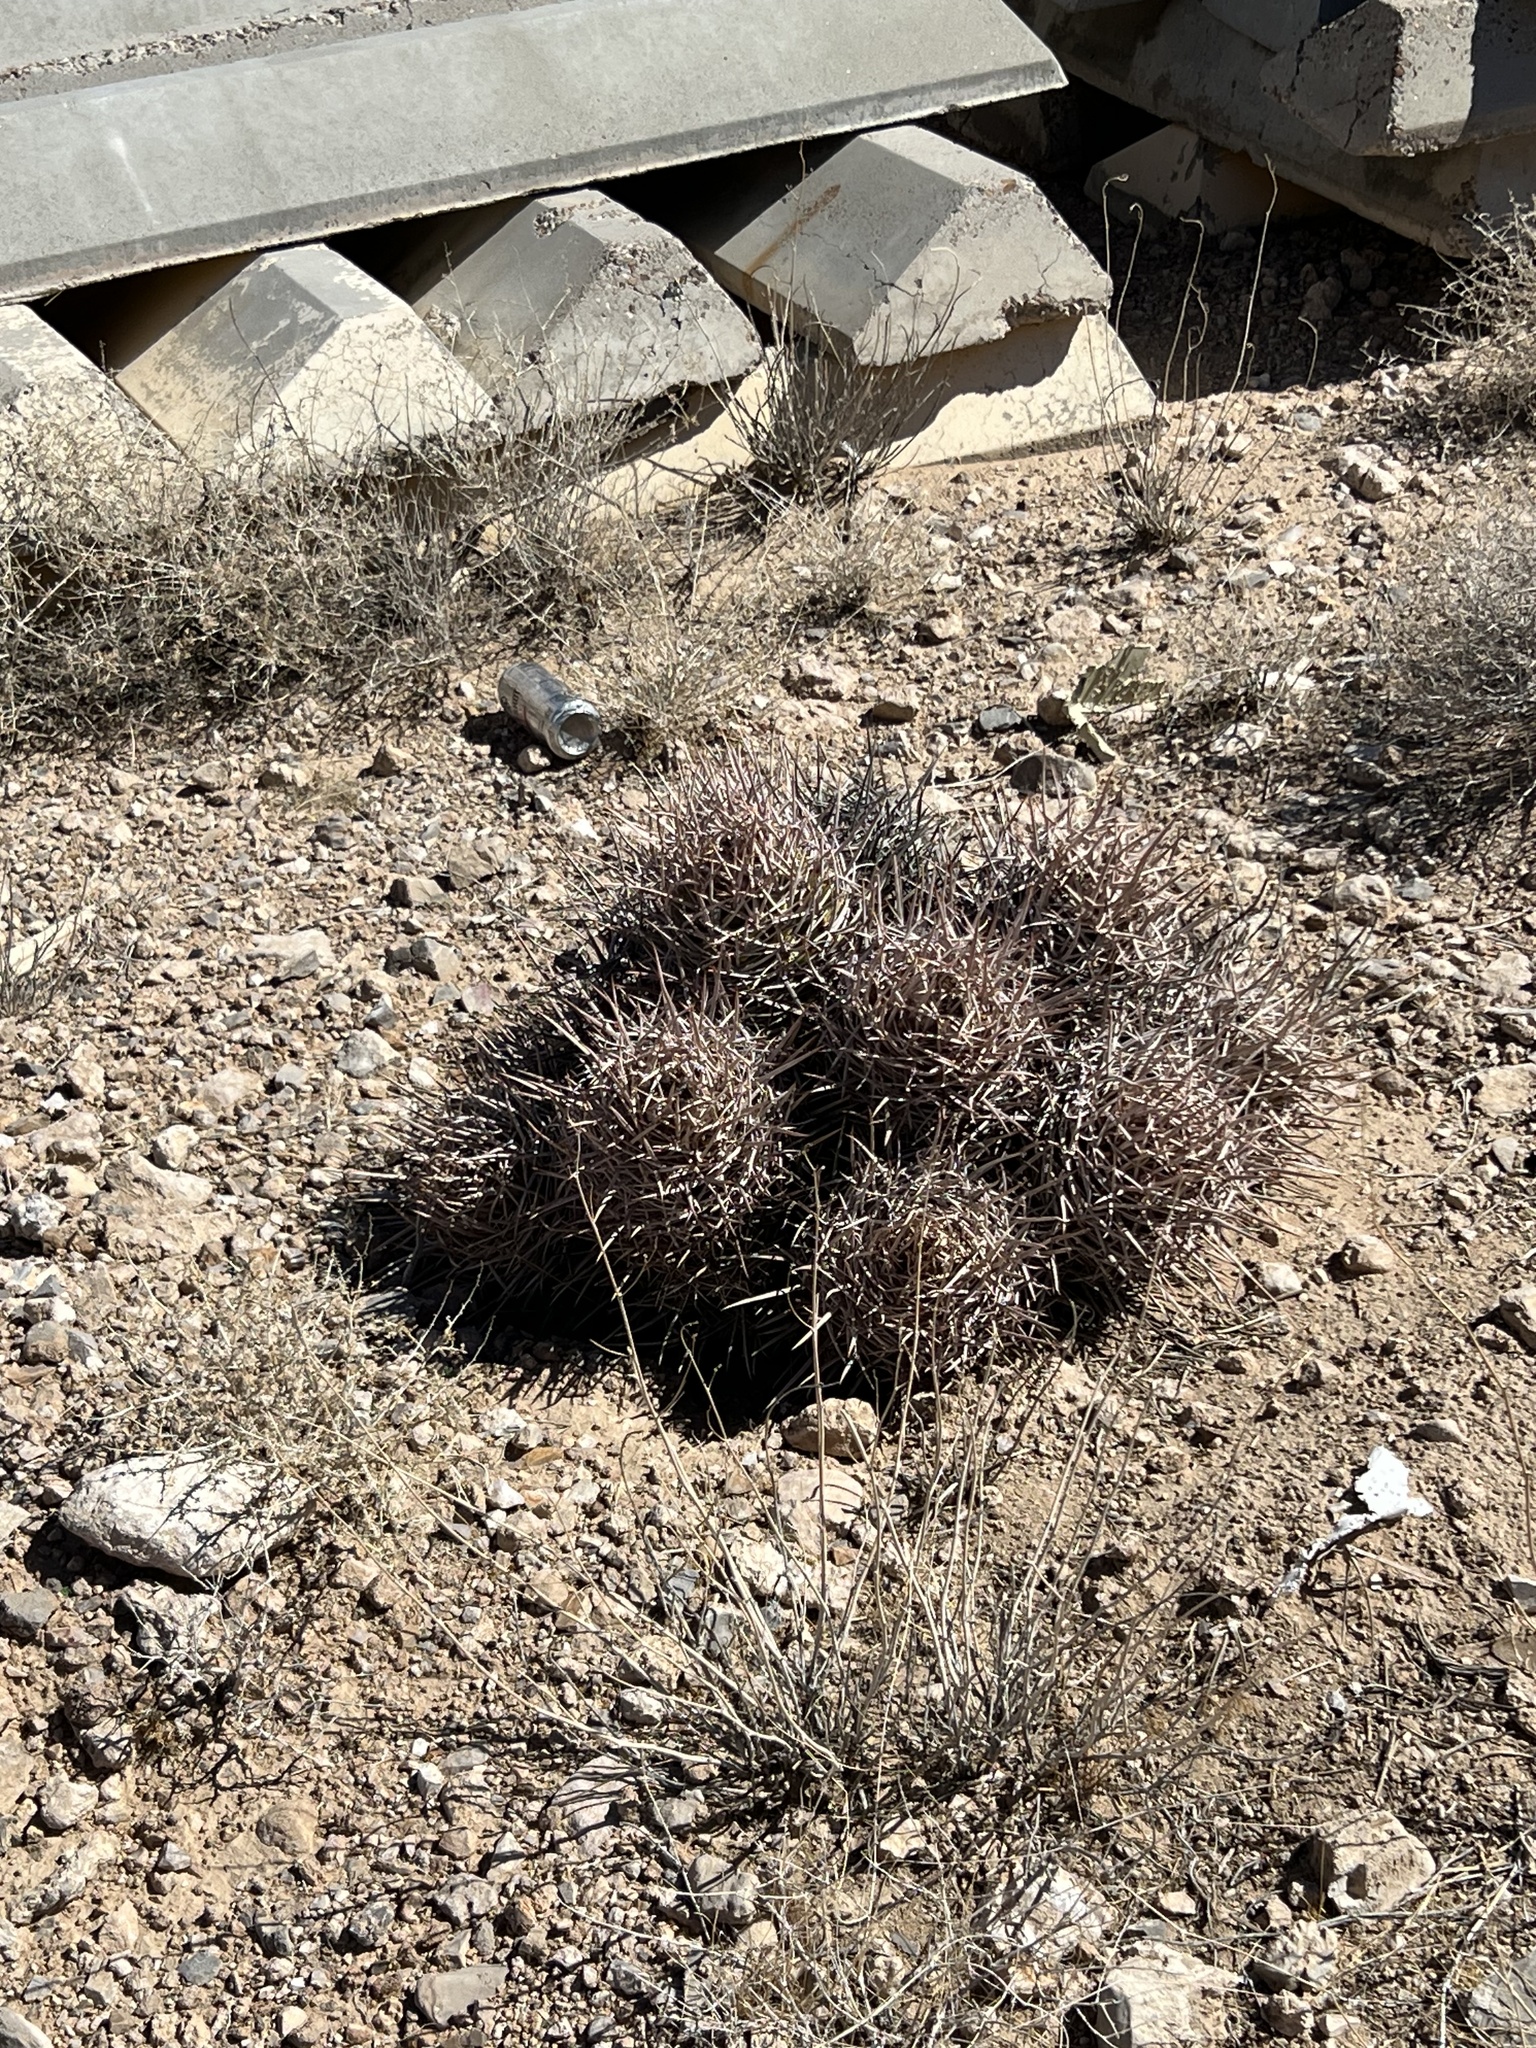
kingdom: Plantae
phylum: Tracheophyta
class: Magnoliopsida
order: Caryophyllales
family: Cactaceae
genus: Echinocactus
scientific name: Echinocactus polycephalus
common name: Cottontop cactus
